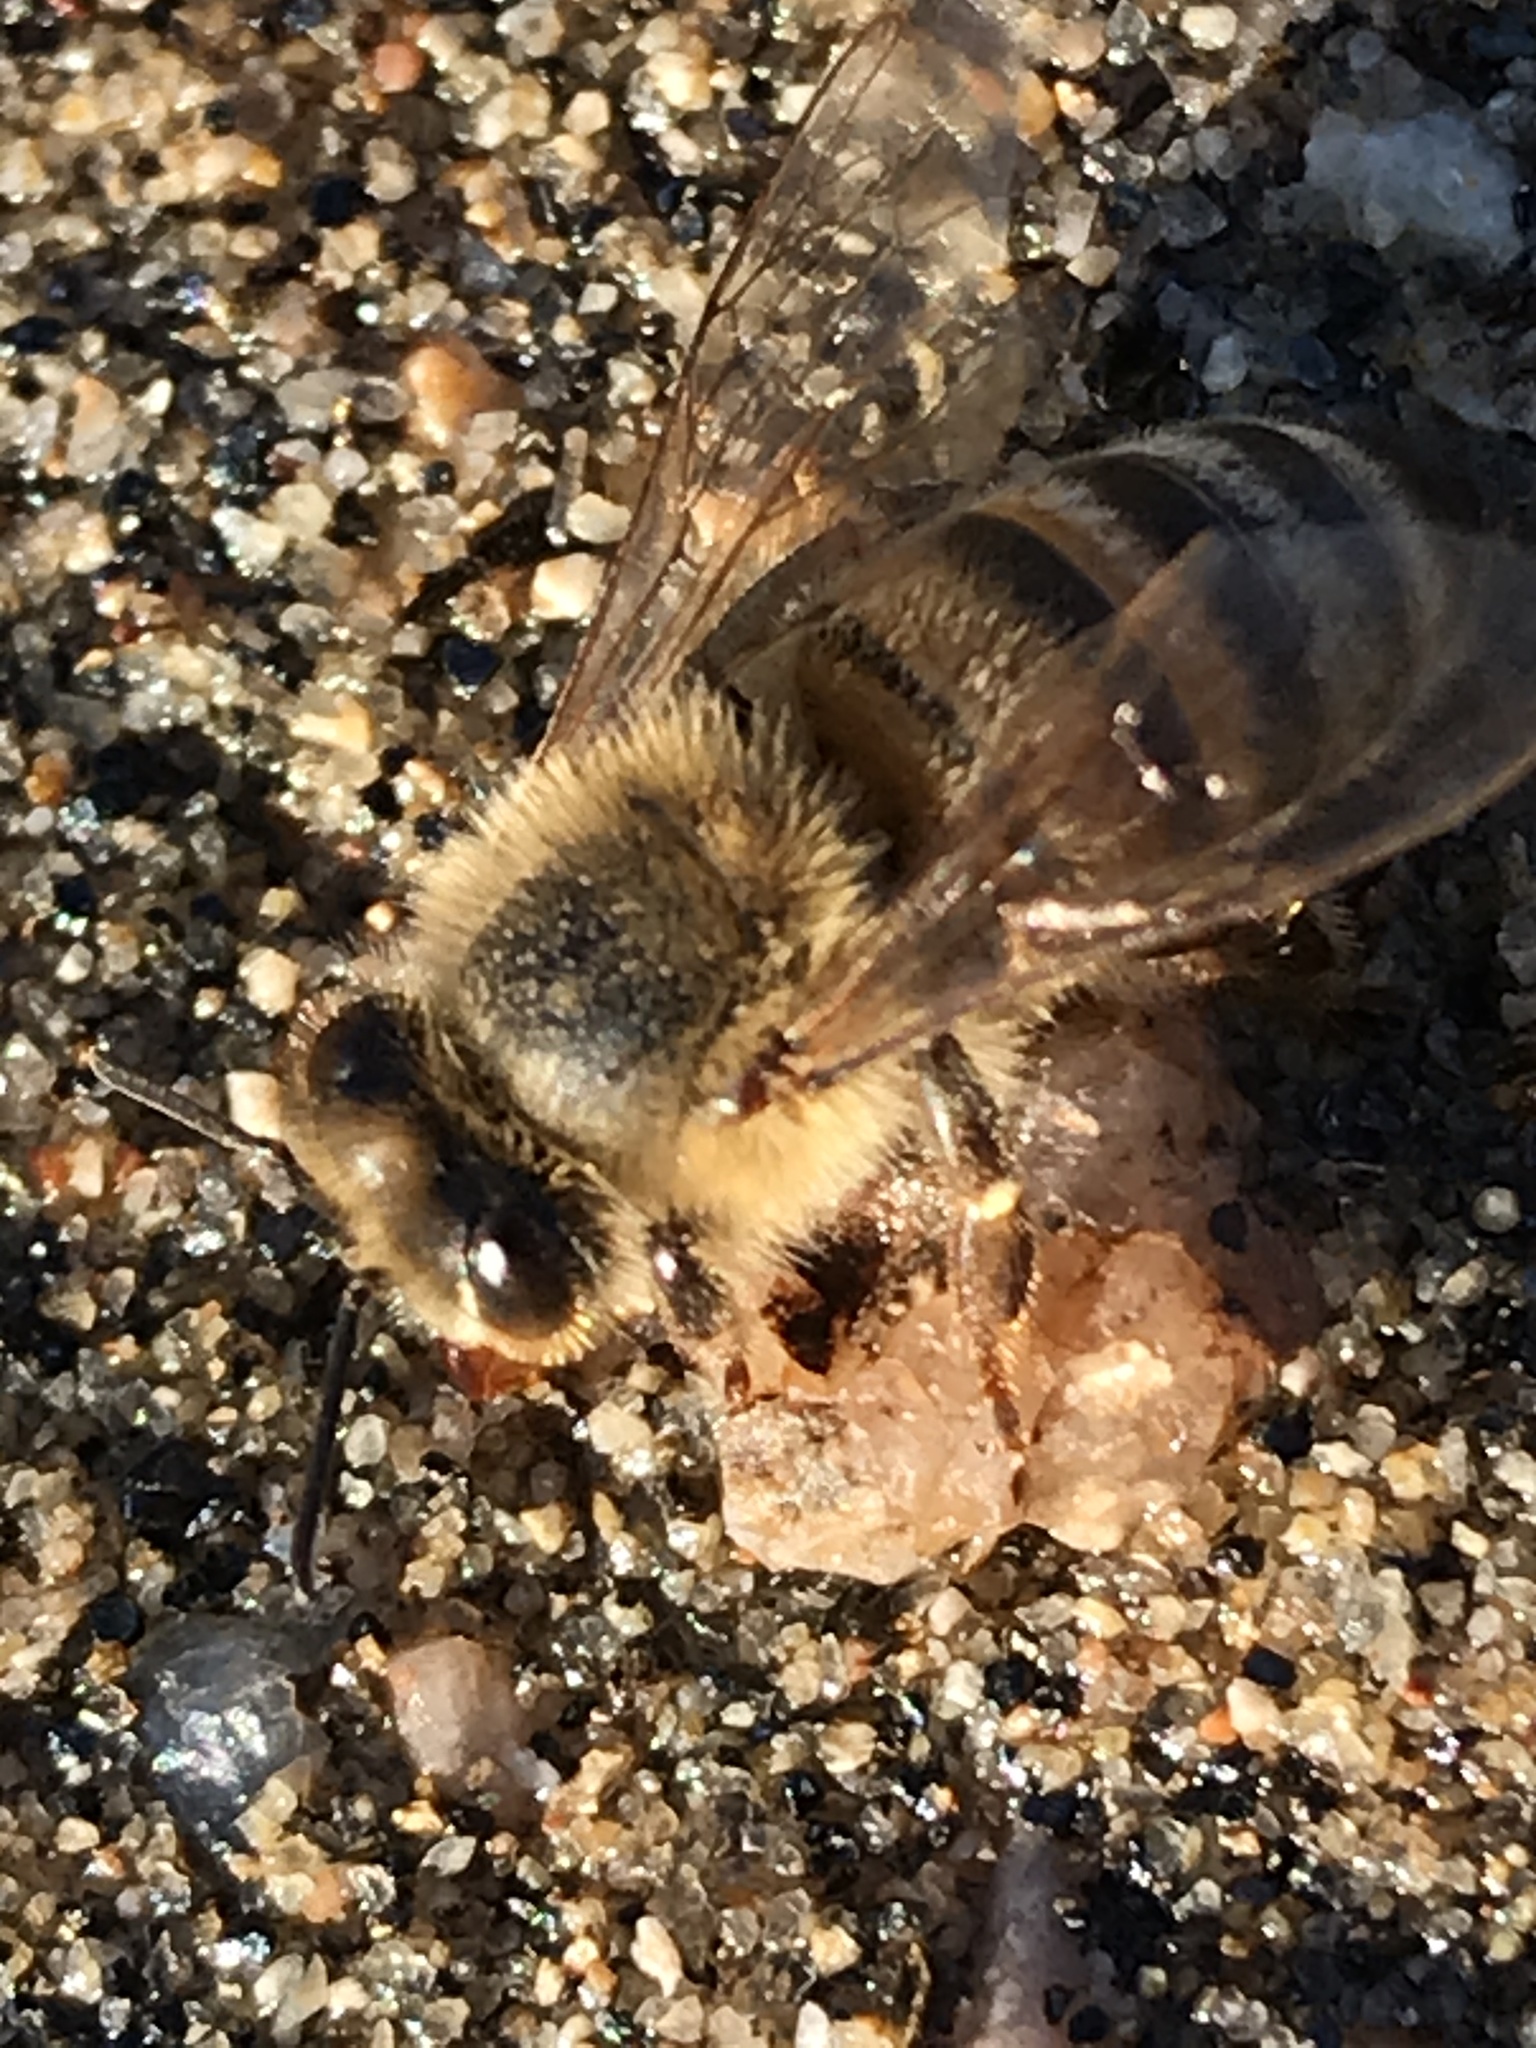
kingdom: Animalia
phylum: Arthropoda
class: Insecta
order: Hymenoptera
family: Apidae
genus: Apis
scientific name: Apis mellifera
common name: Honey bee
